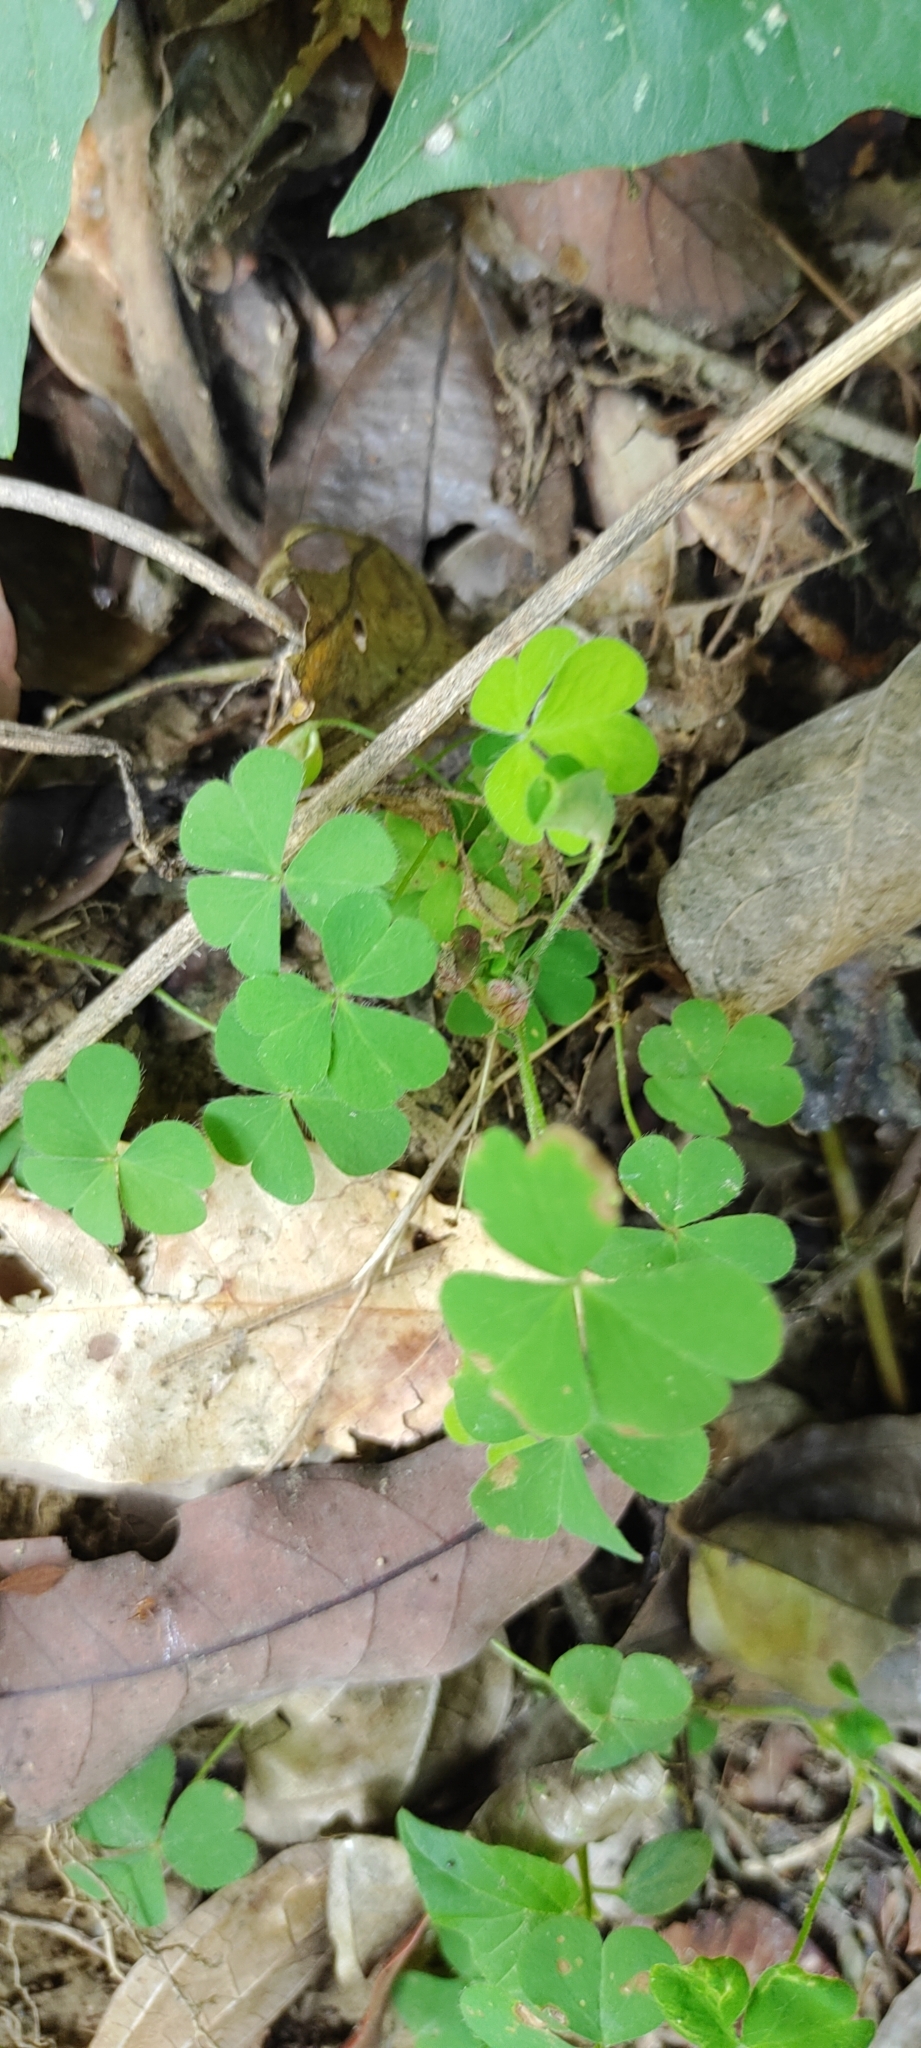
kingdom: Plantae
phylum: Tracheophyta
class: Magnoliopsida
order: Oxalidales
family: Oxalidaceae
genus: Oxalis
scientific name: Oxalis corniculata
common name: Procumbent yellow-sorrel
